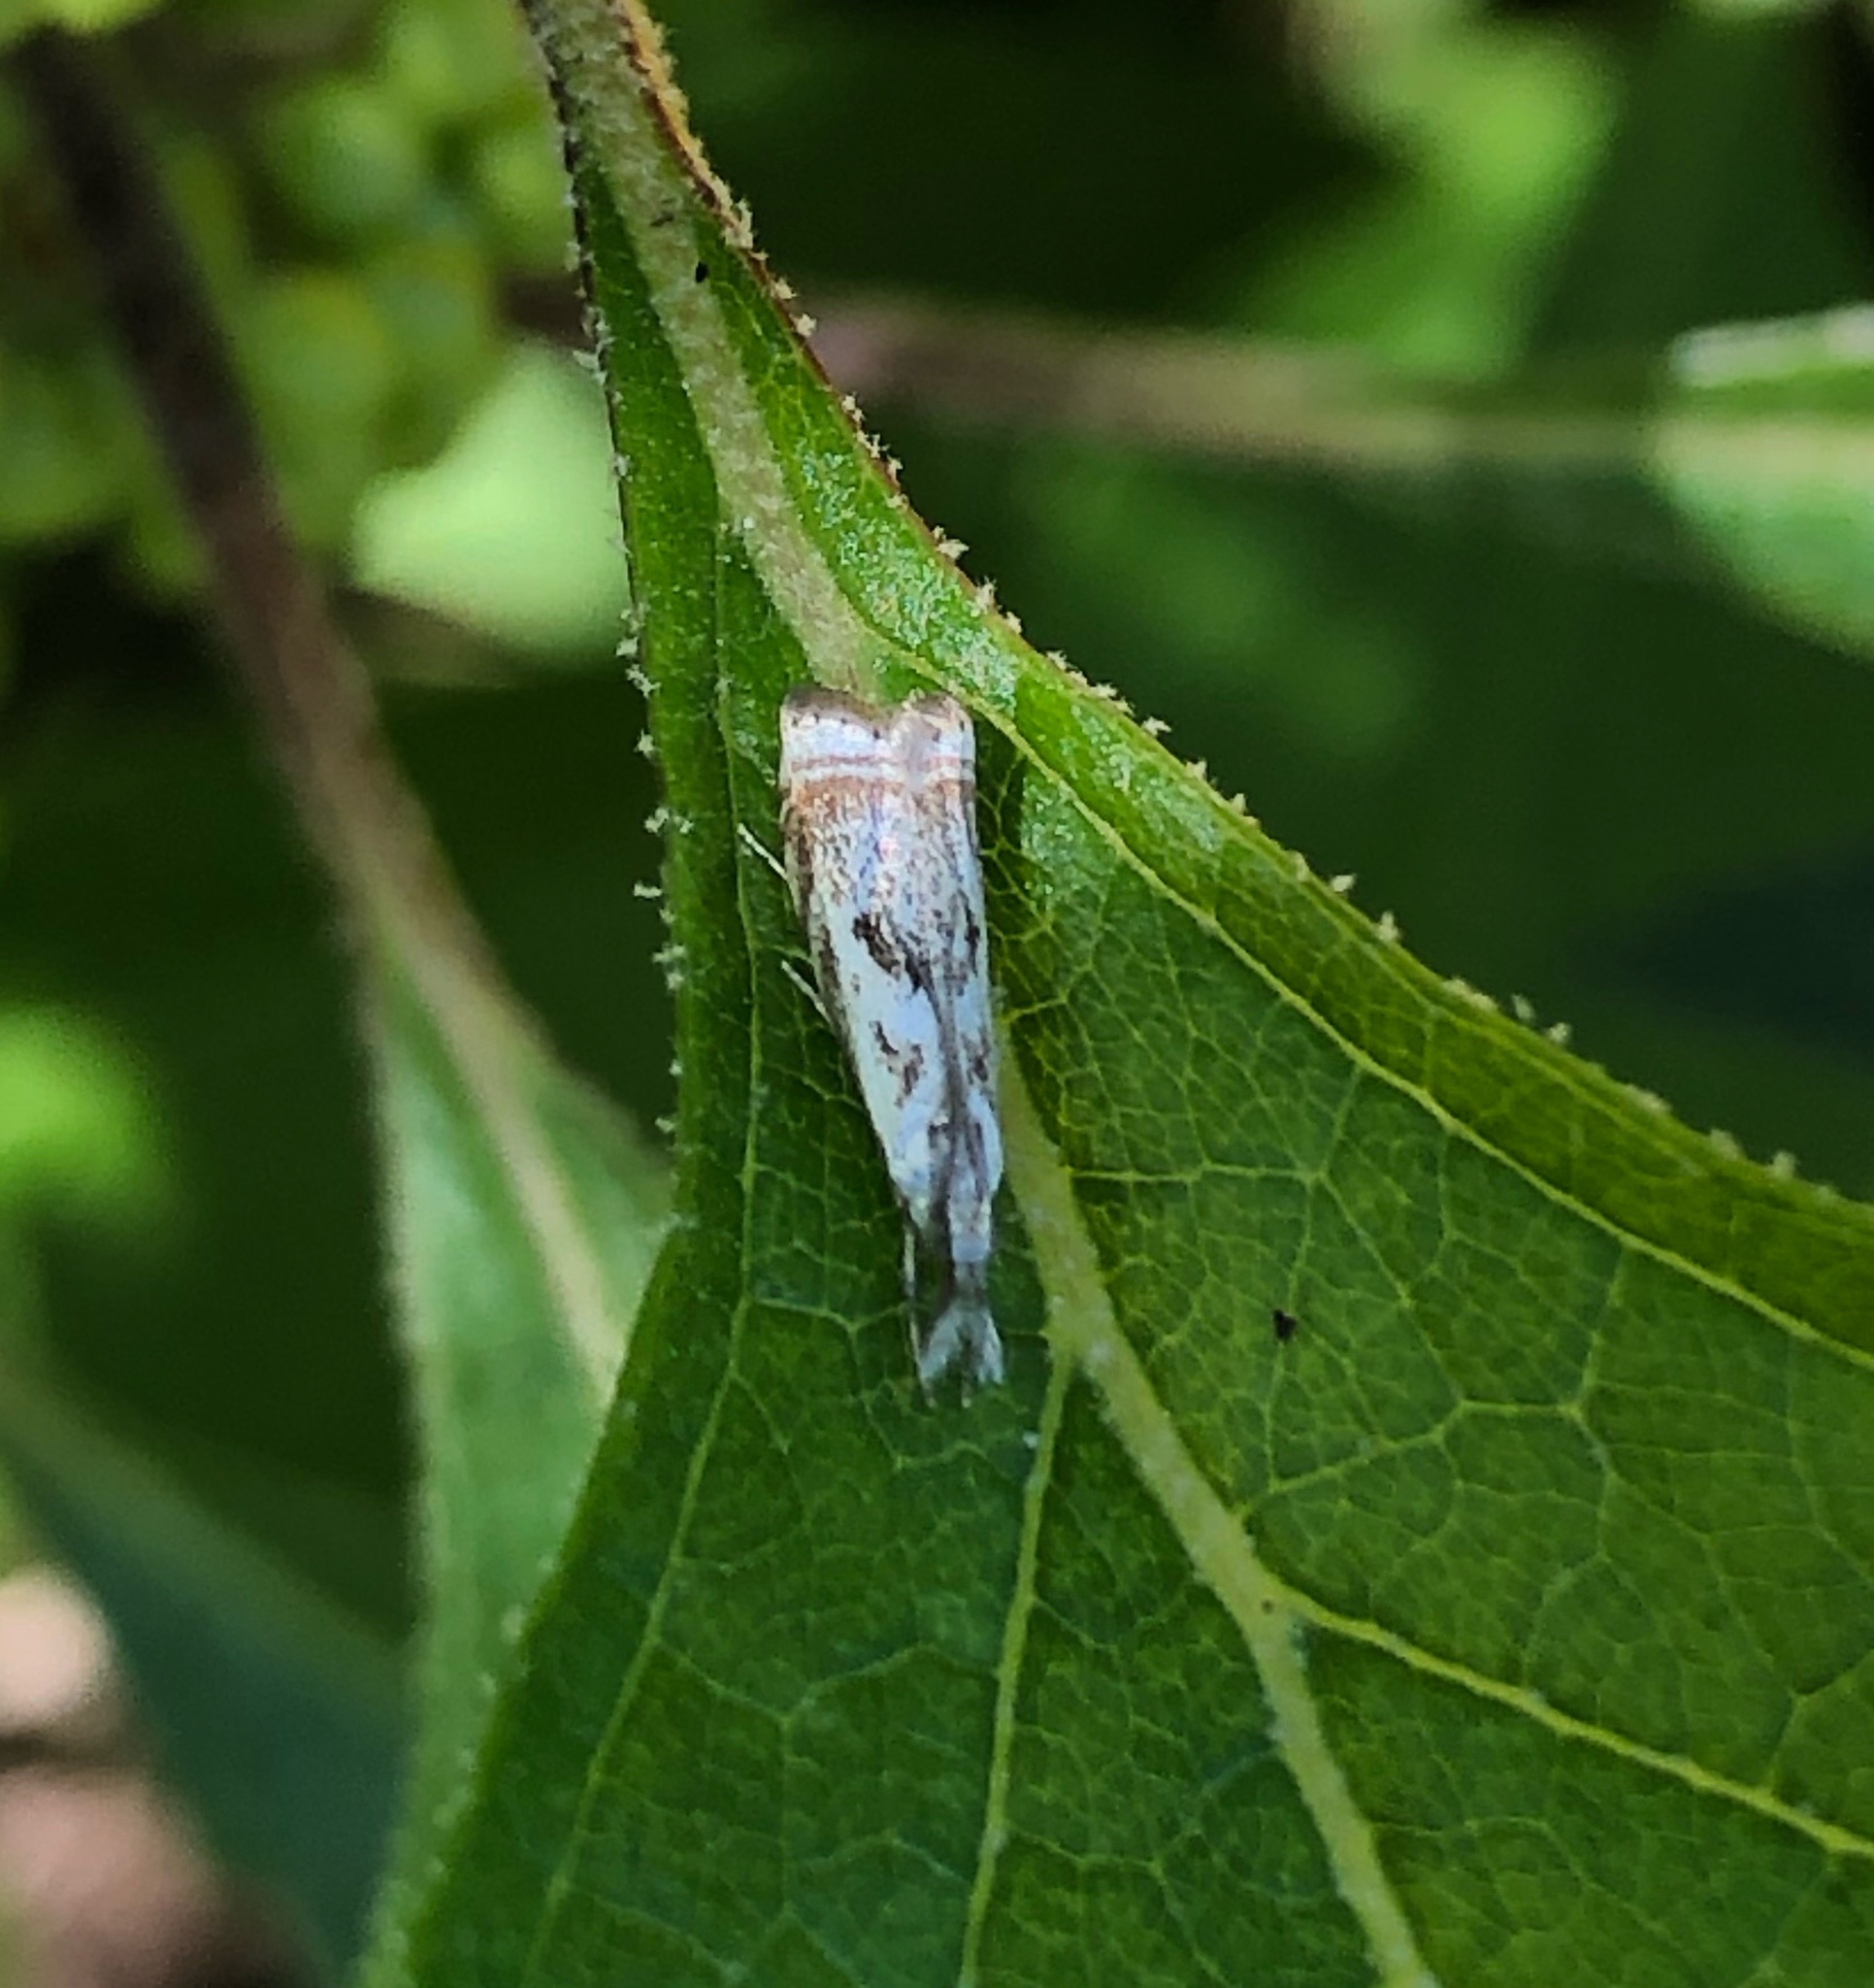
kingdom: Animalia
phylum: Arthropoda
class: Insecta
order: Lepidoptera
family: Crambidae
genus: Microcrambus
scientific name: Microcrambus elegans
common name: Elegant grass-veneer
